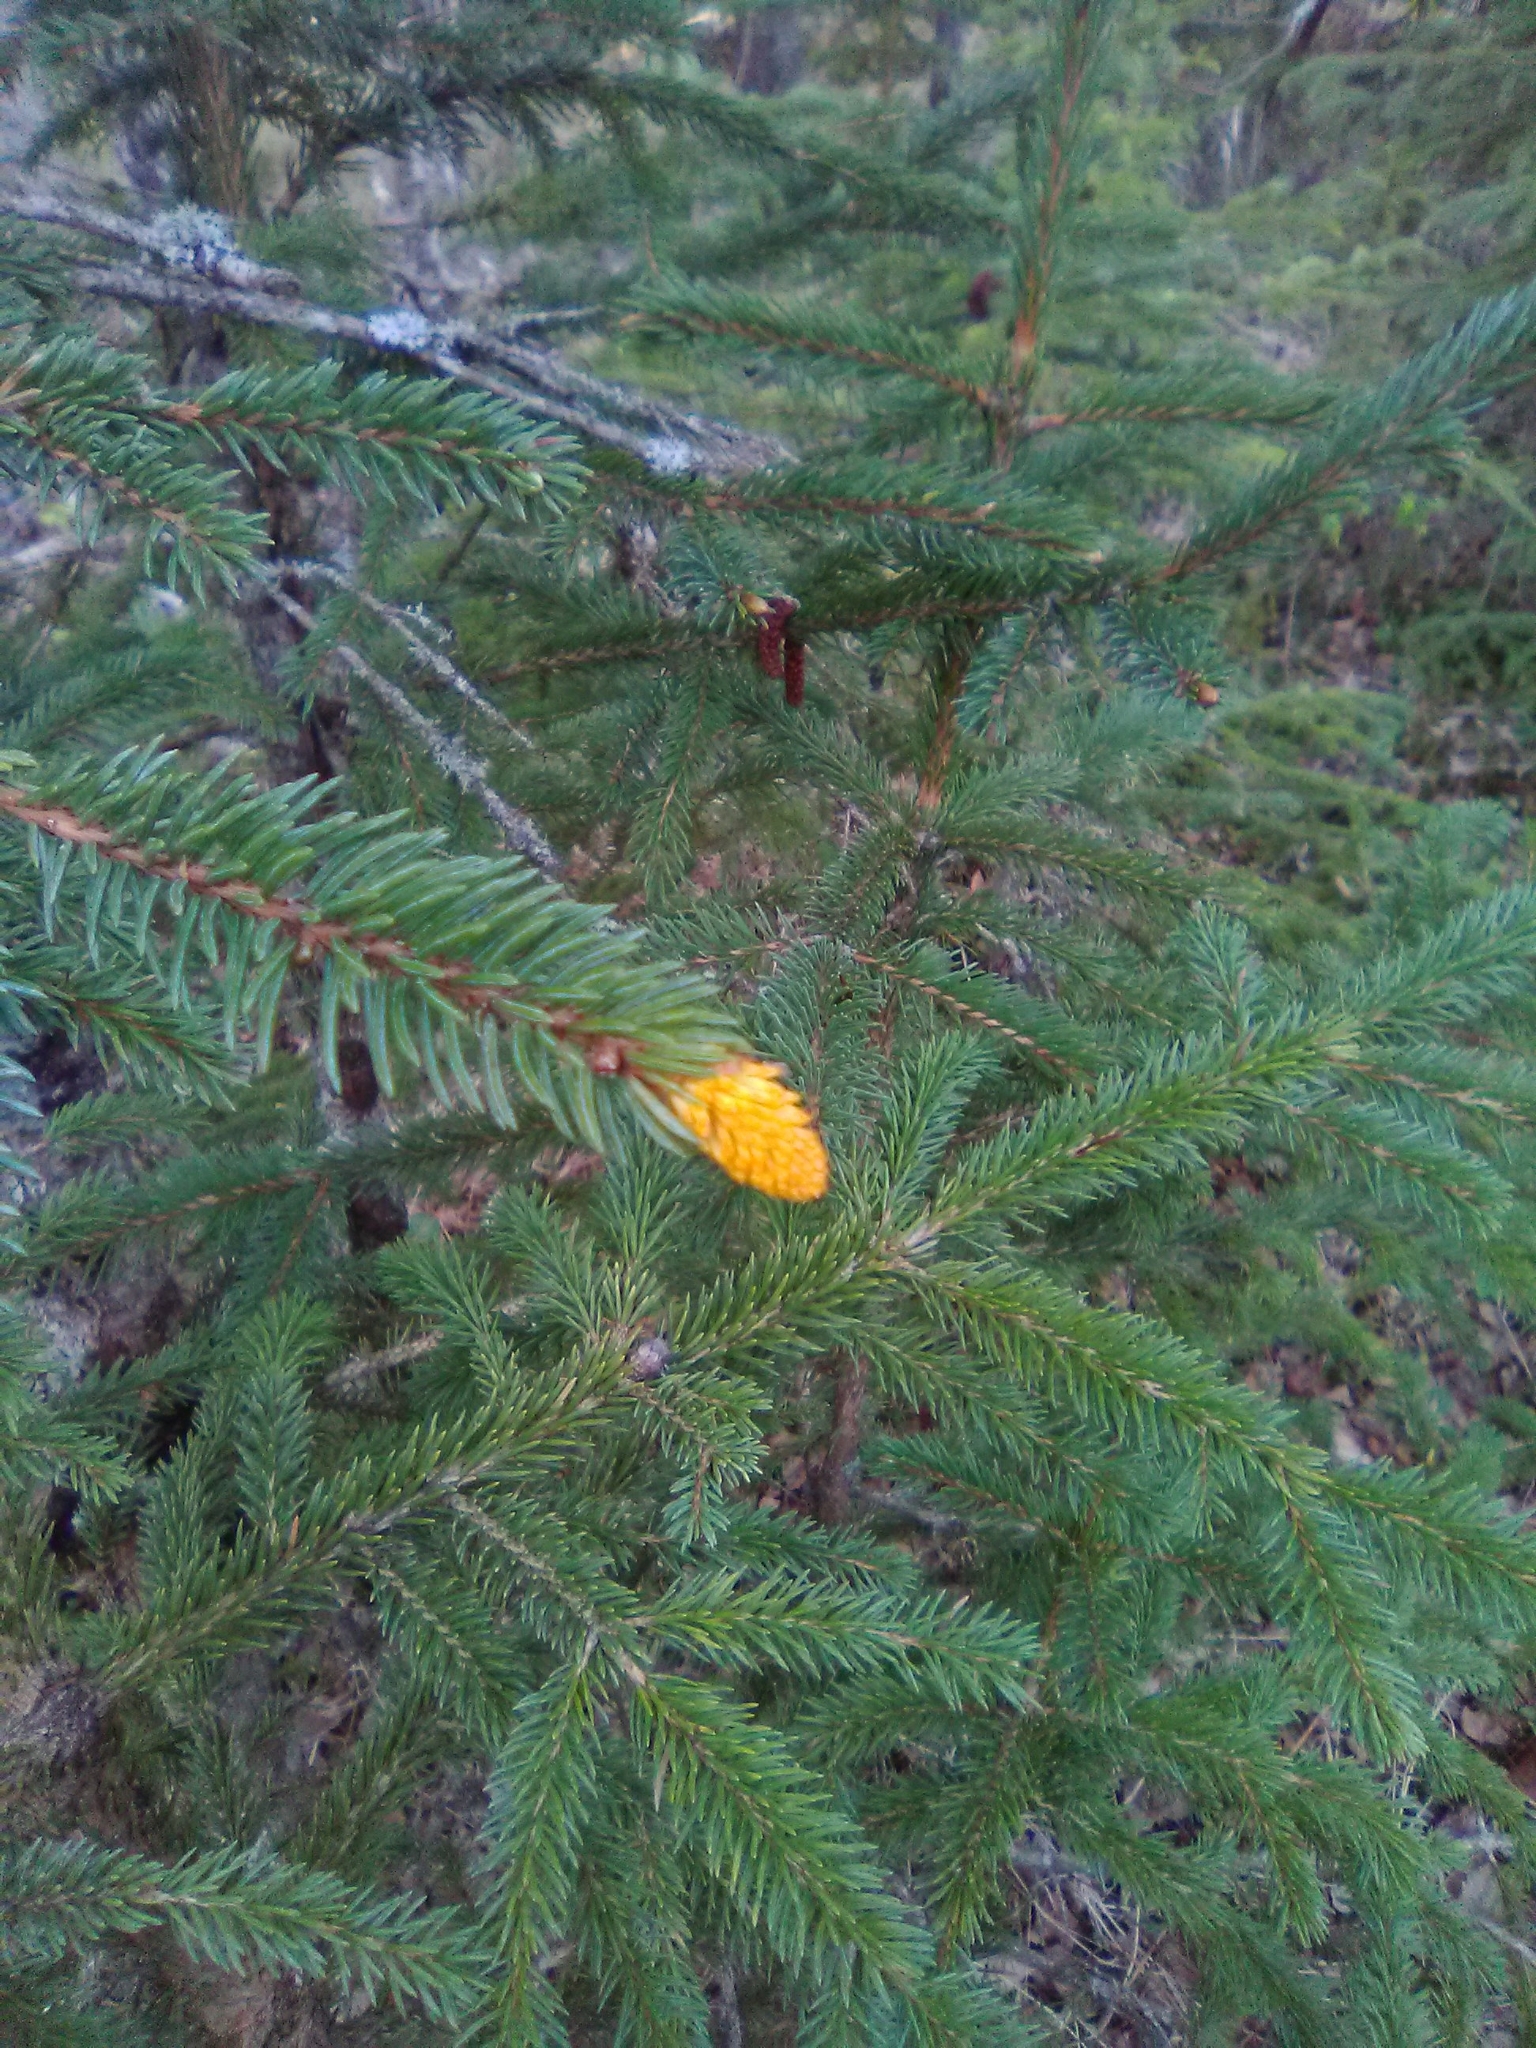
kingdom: Fungi
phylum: Basidiomycota
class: Pucciniomycetes
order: Pucciniales
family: Coleosporiaceae
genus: Chrysomyxa
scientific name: Chrysomyxa woroninii
